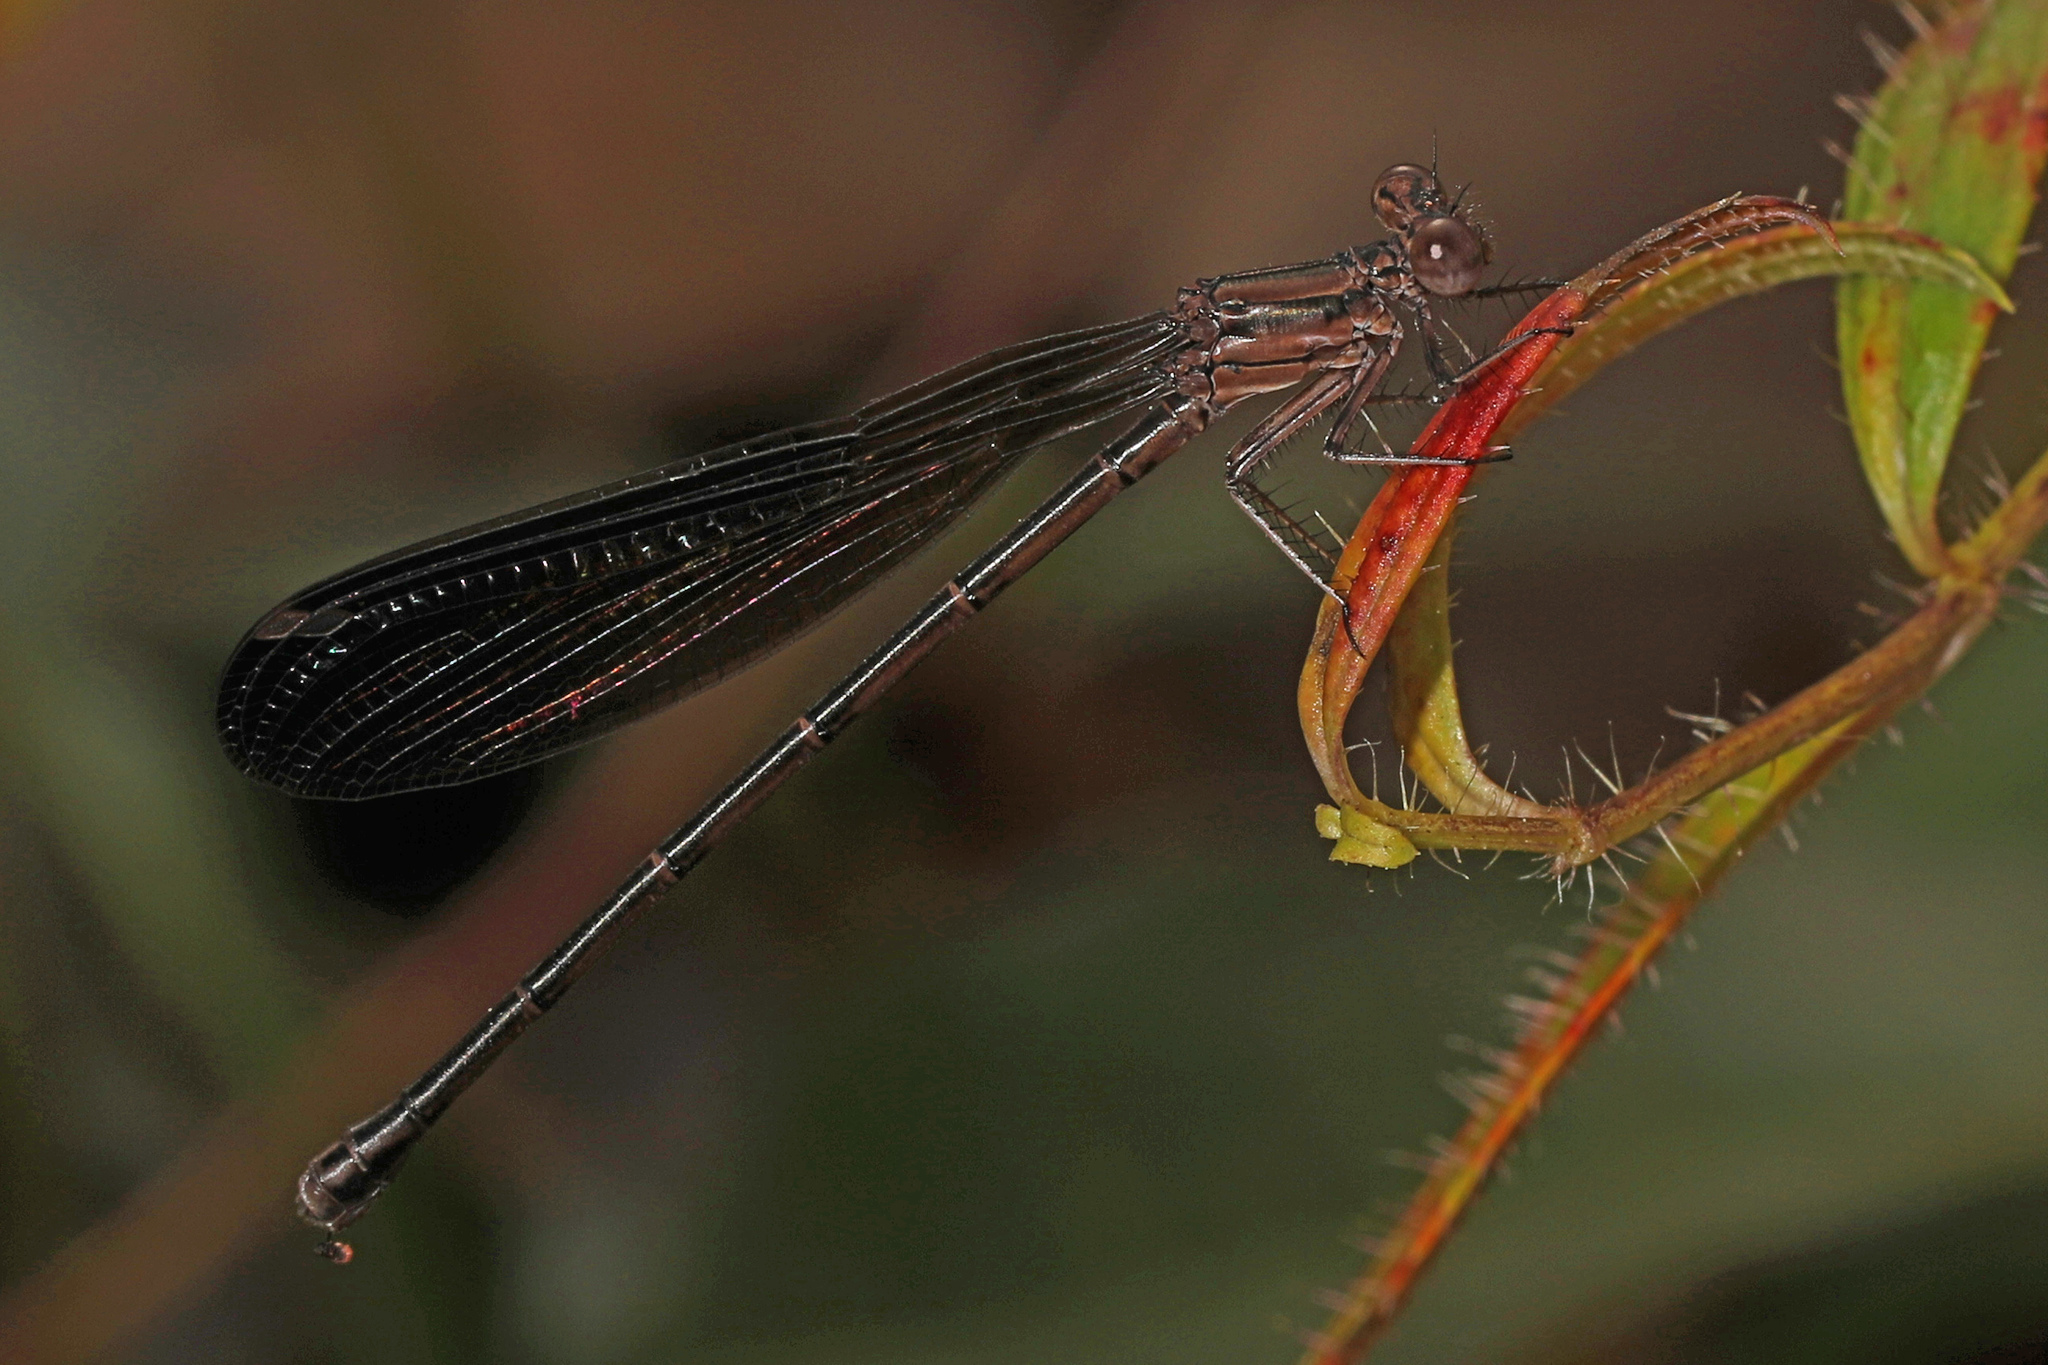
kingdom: Animalia
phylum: Arthropoda
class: Insecta
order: Odonata
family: Coenagrionidae
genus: Argia
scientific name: Argia fumipennis
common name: Variable dancer
